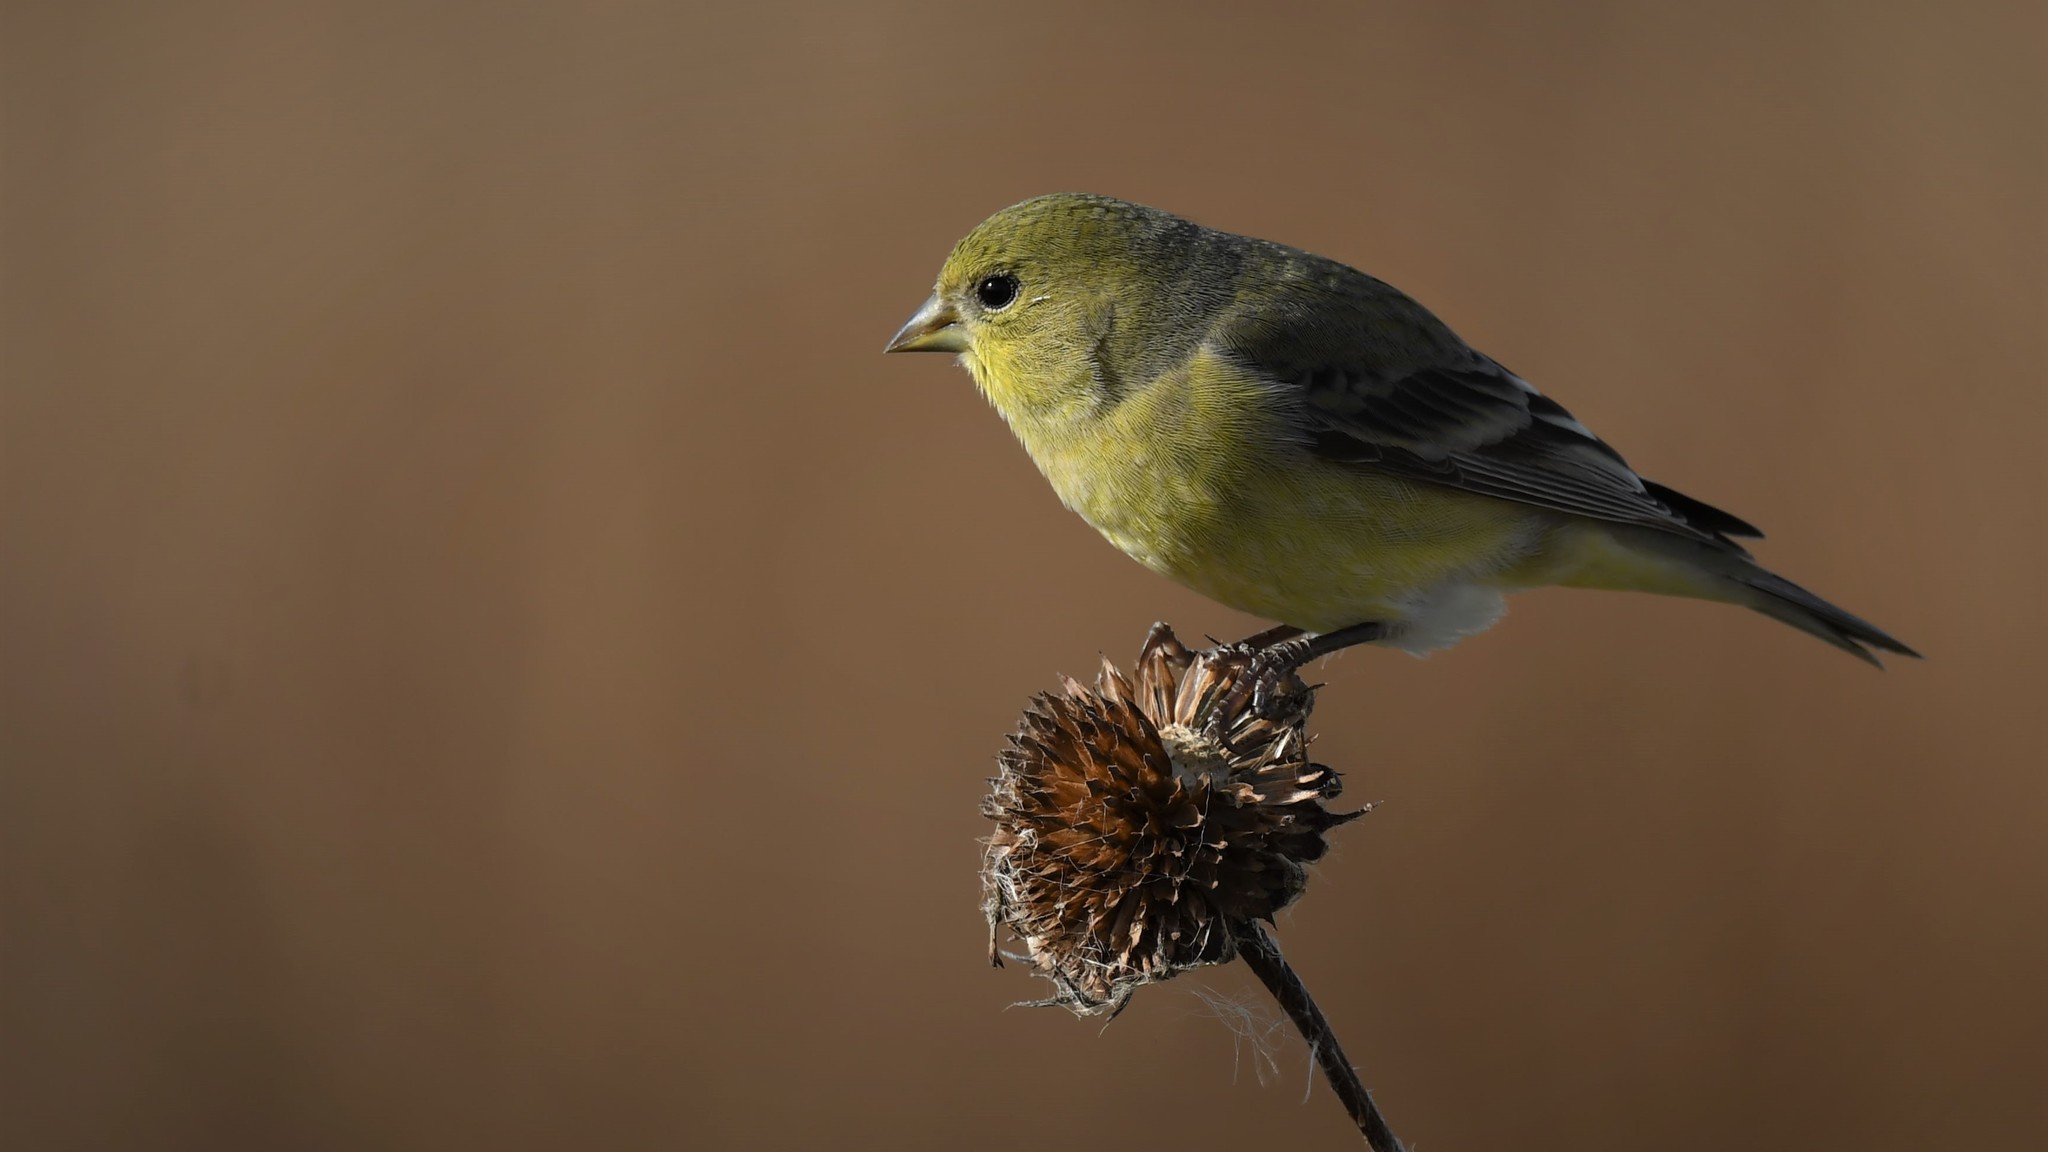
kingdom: Animalia
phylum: Chordata
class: Aves
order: Passeriformes
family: Fringillidae
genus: Spinus
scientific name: Spinus psaltria
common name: Lesser goldfinch
